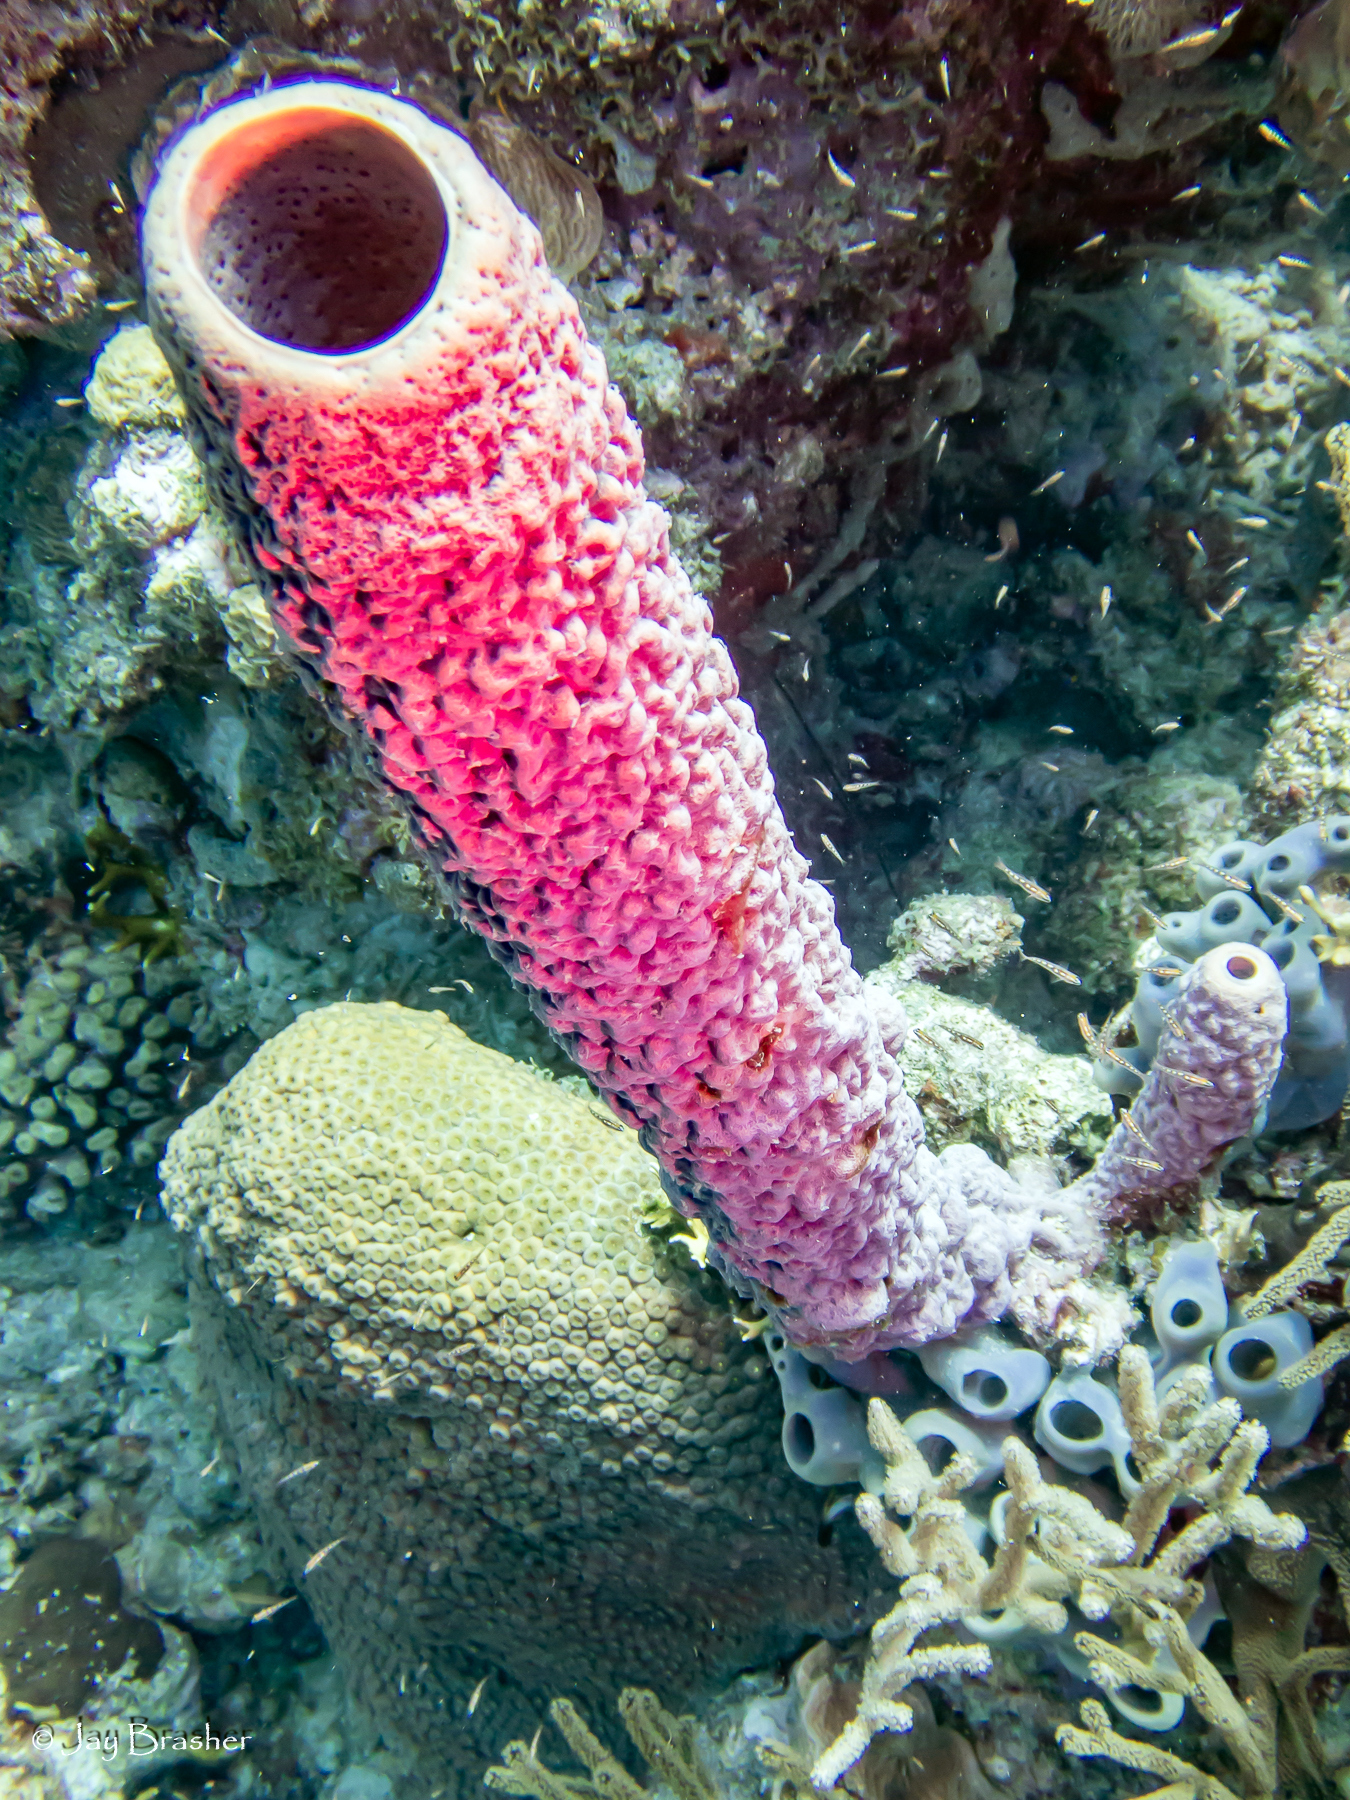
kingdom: Animalia
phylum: Cnidaria
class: Anthozoa
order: Scleractinia
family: Montastraeidae
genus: Montastraea
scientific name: Montastraea cavernosa
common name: Great star coral
